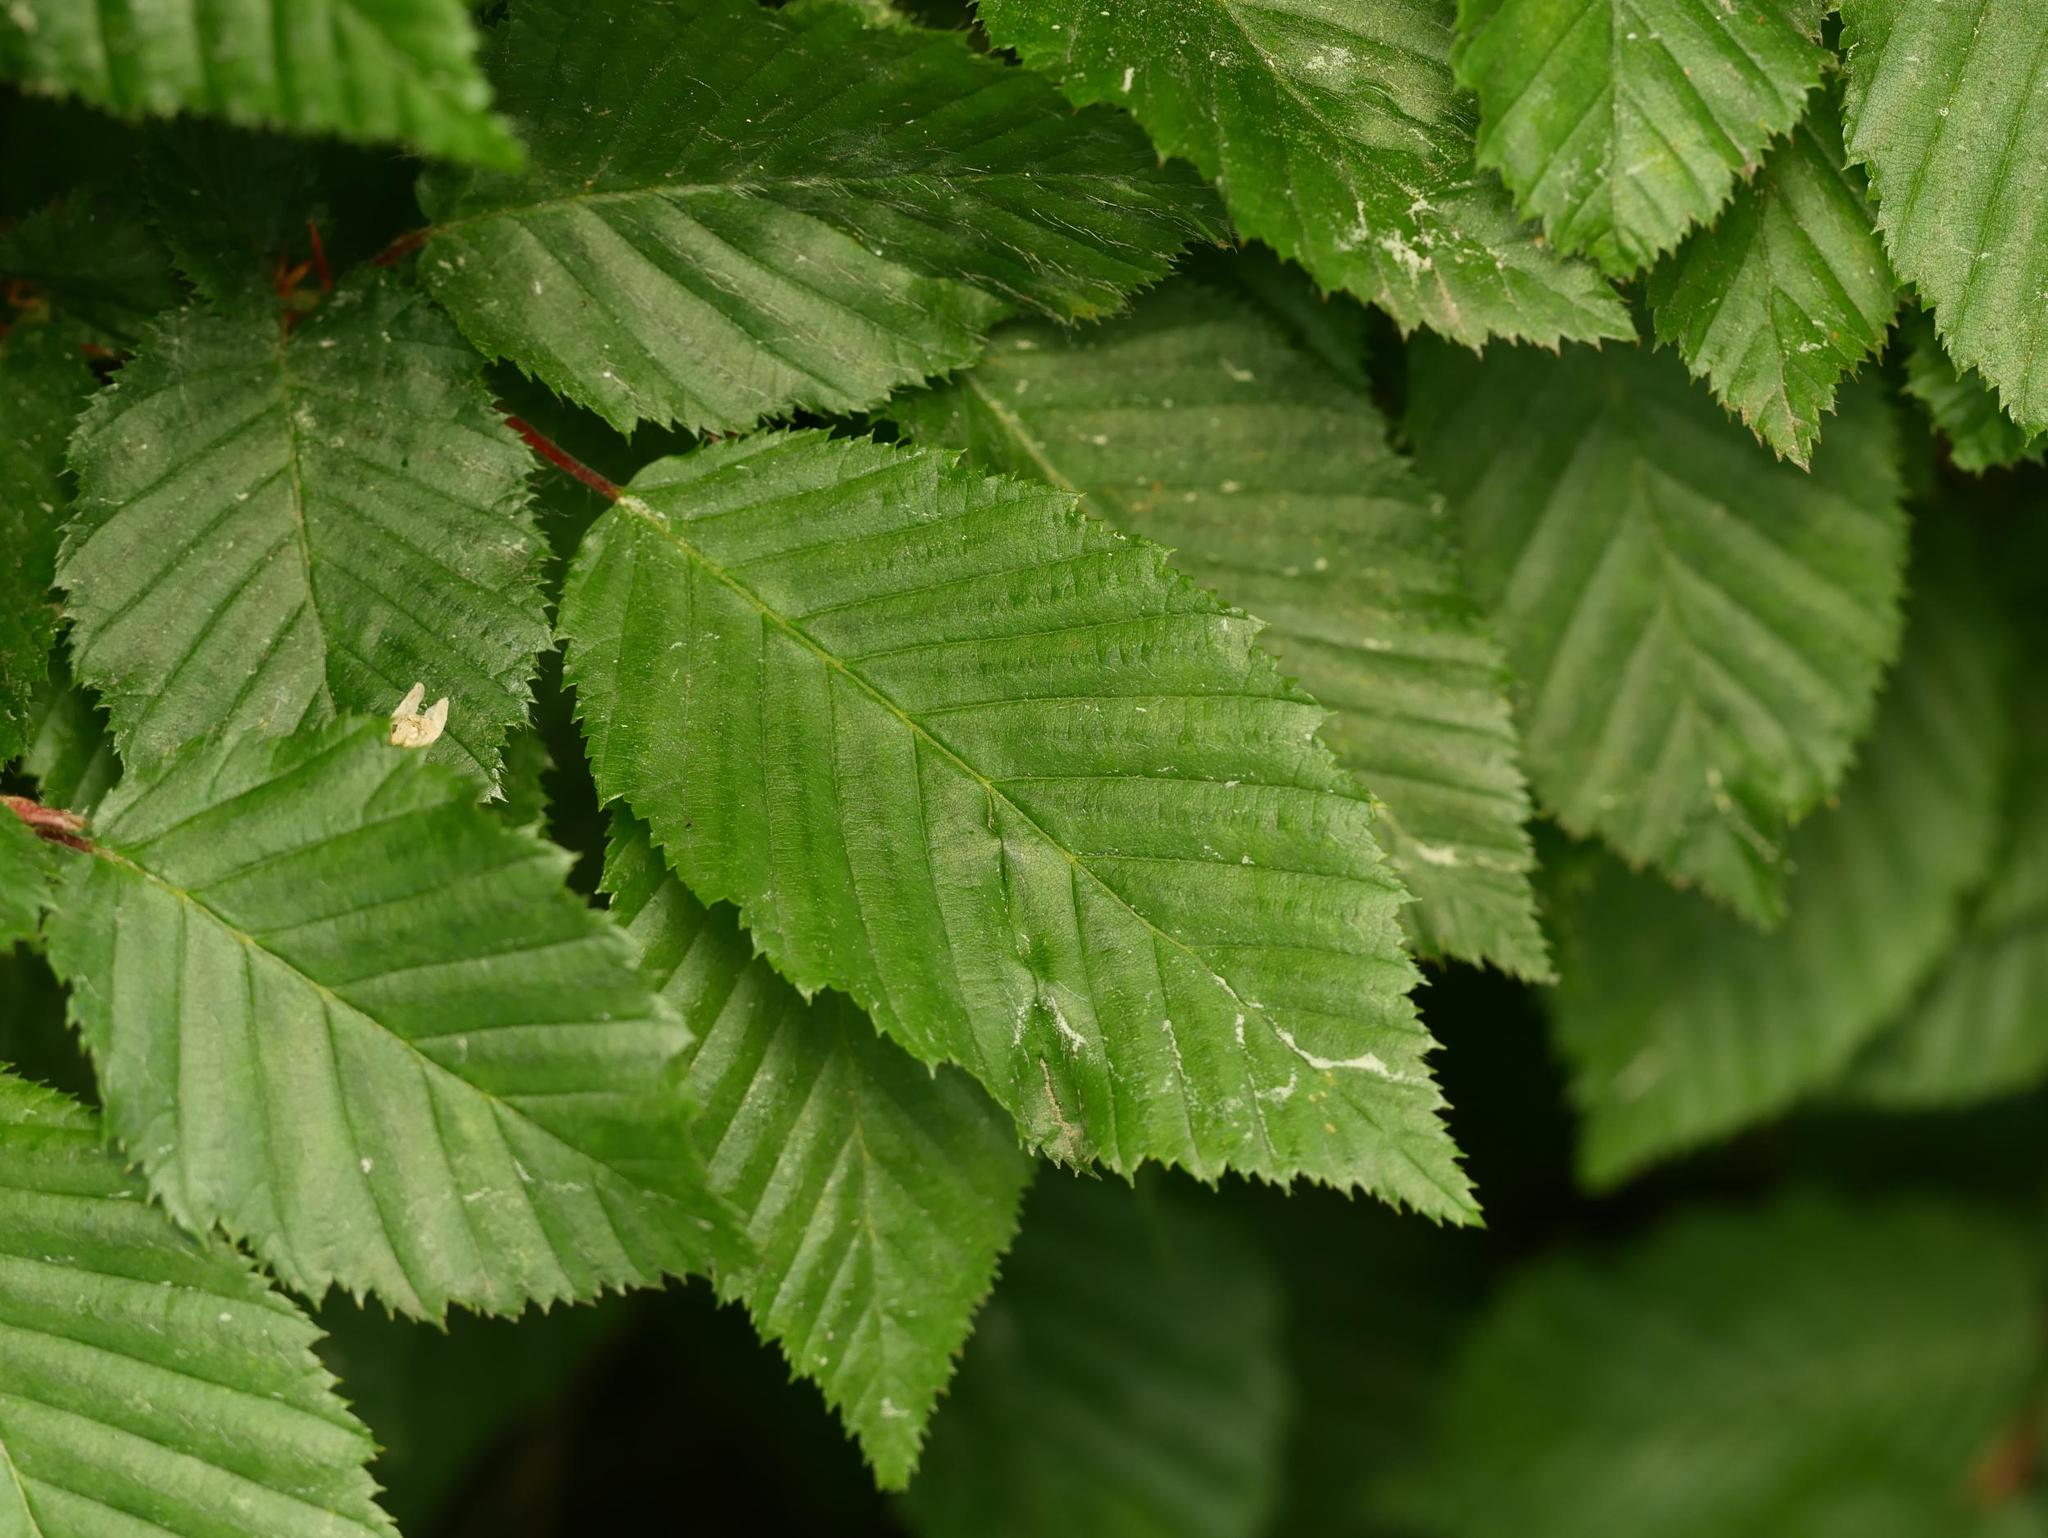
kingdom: Plantae
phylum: Tracheophyta
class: Magnoliopsida
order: Fagales
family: Betulaceae
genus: Carpinus
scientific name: Carpinus betulus
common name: Hornbeam
